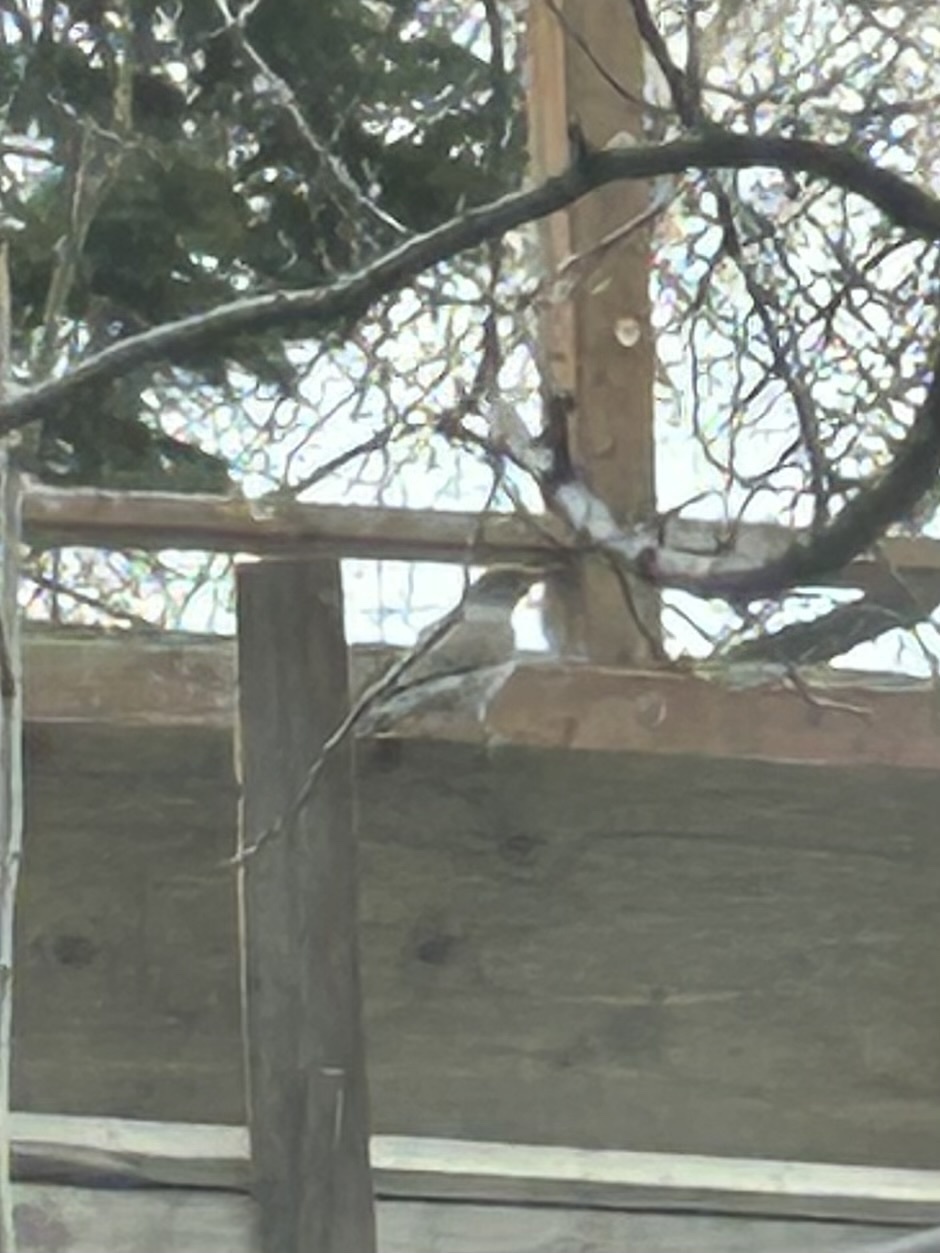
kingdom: Animalia
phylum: Chordata
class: Aves
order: Piciformes
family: Picidae
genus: Colaptes
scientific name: Colaptes auratus
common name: Northern flicker
